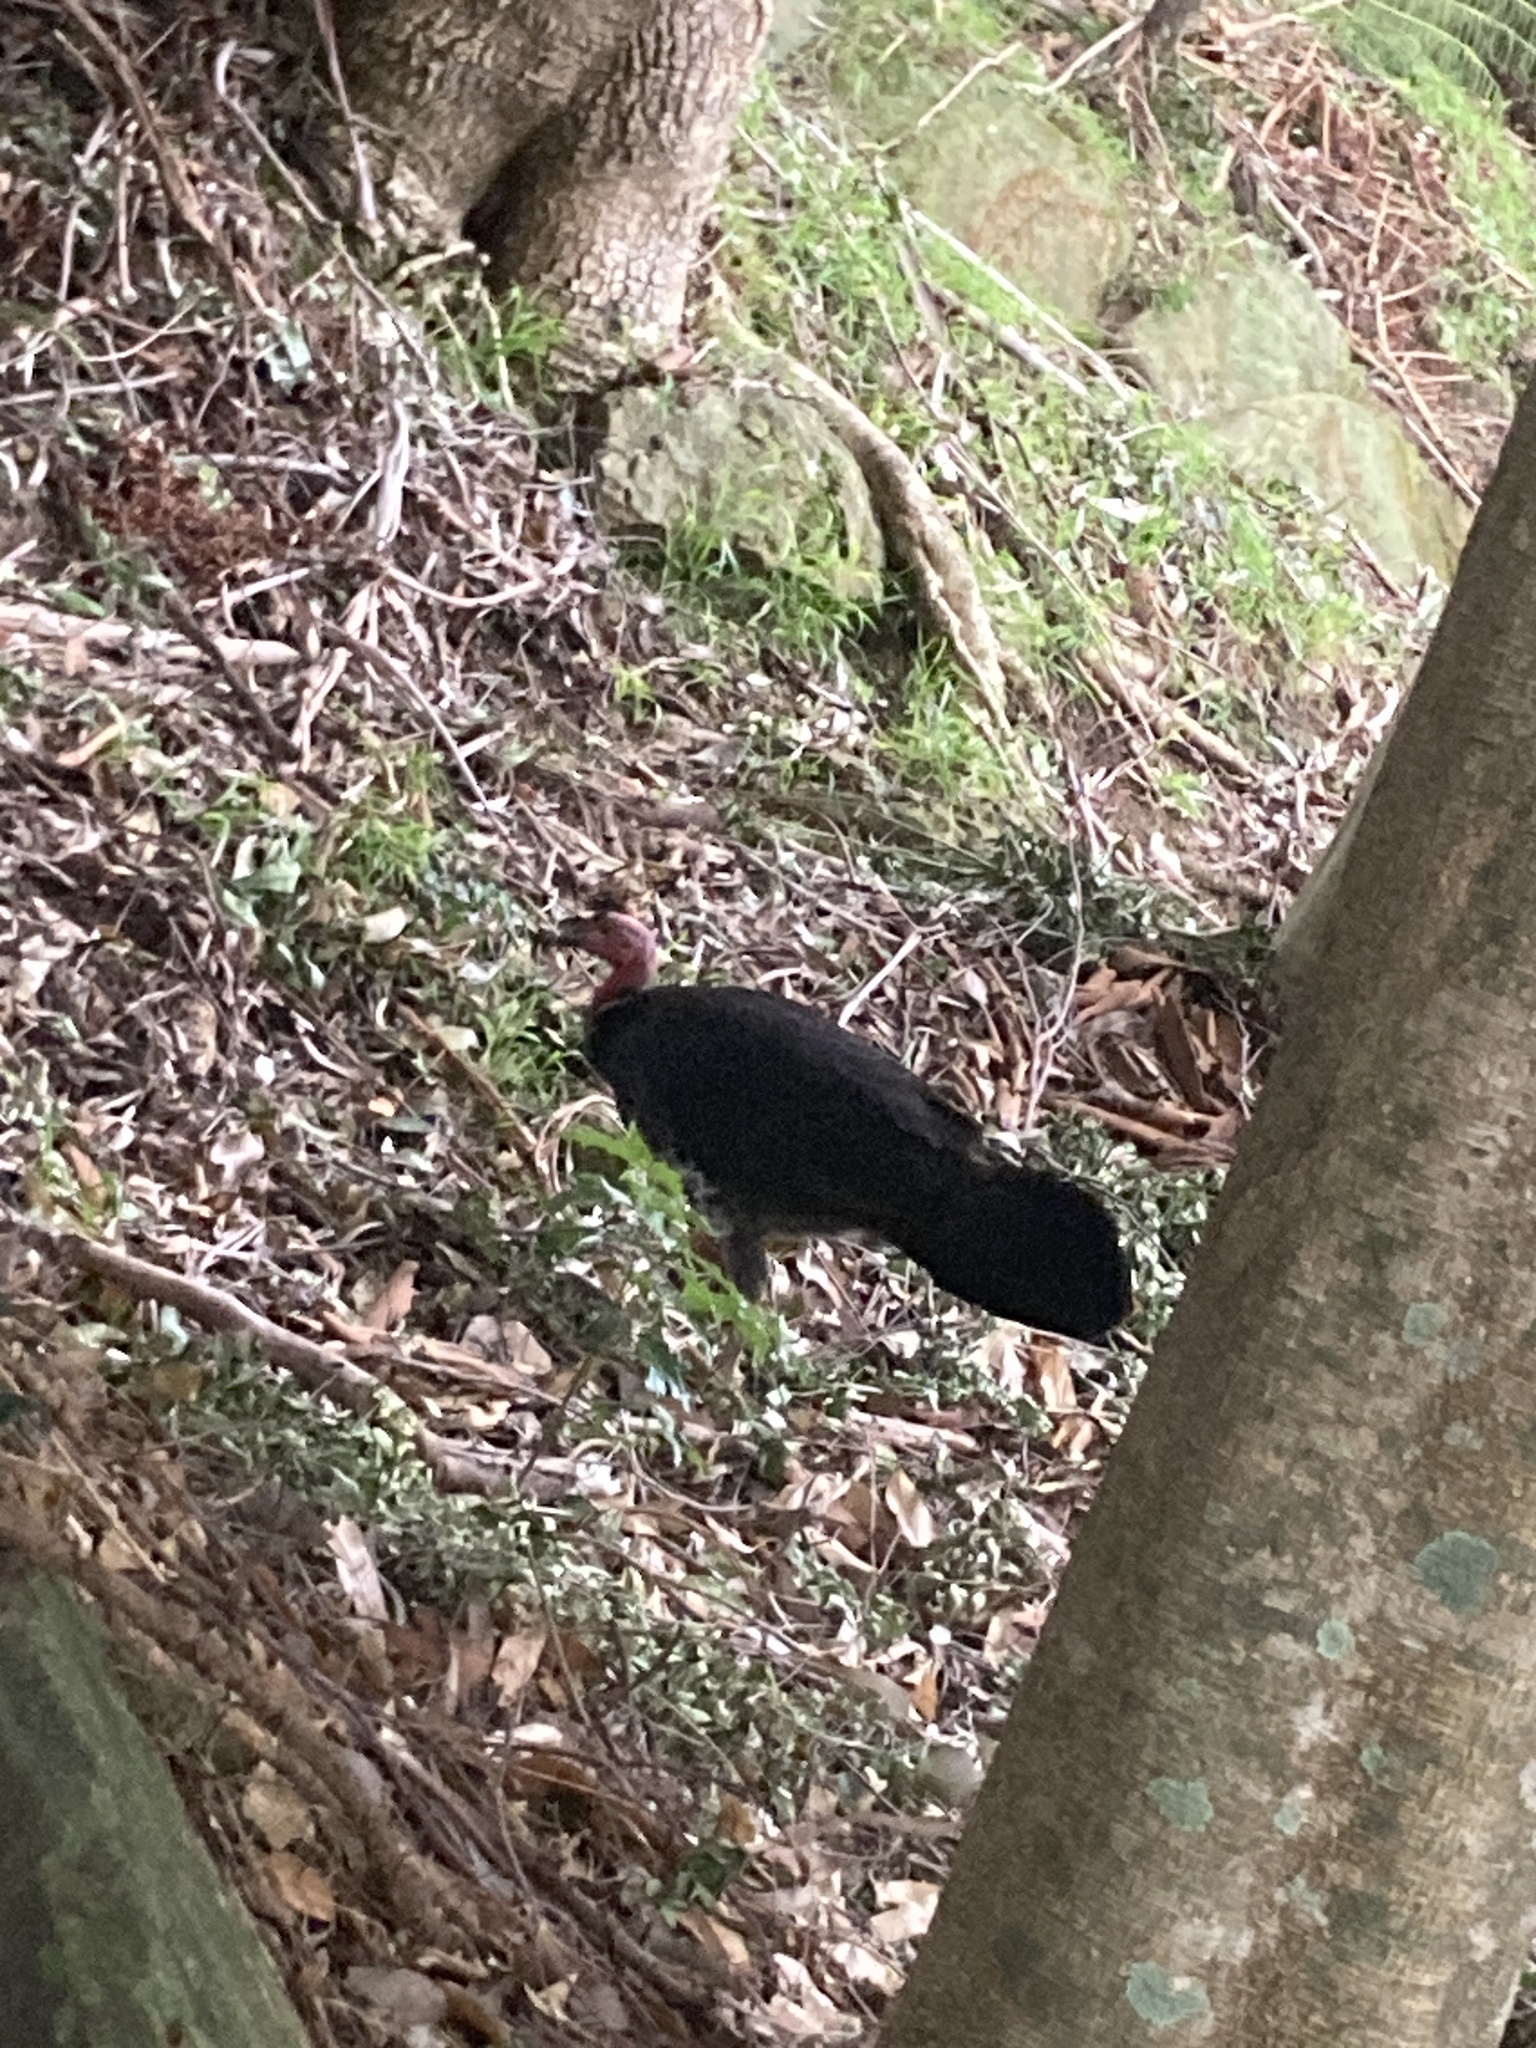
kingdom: Animalia
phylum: Chordata
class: Aves
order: Galliformes
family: Megapodiidae
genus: Alectura
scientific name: Alectura lathami
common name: Australian brushturkey
